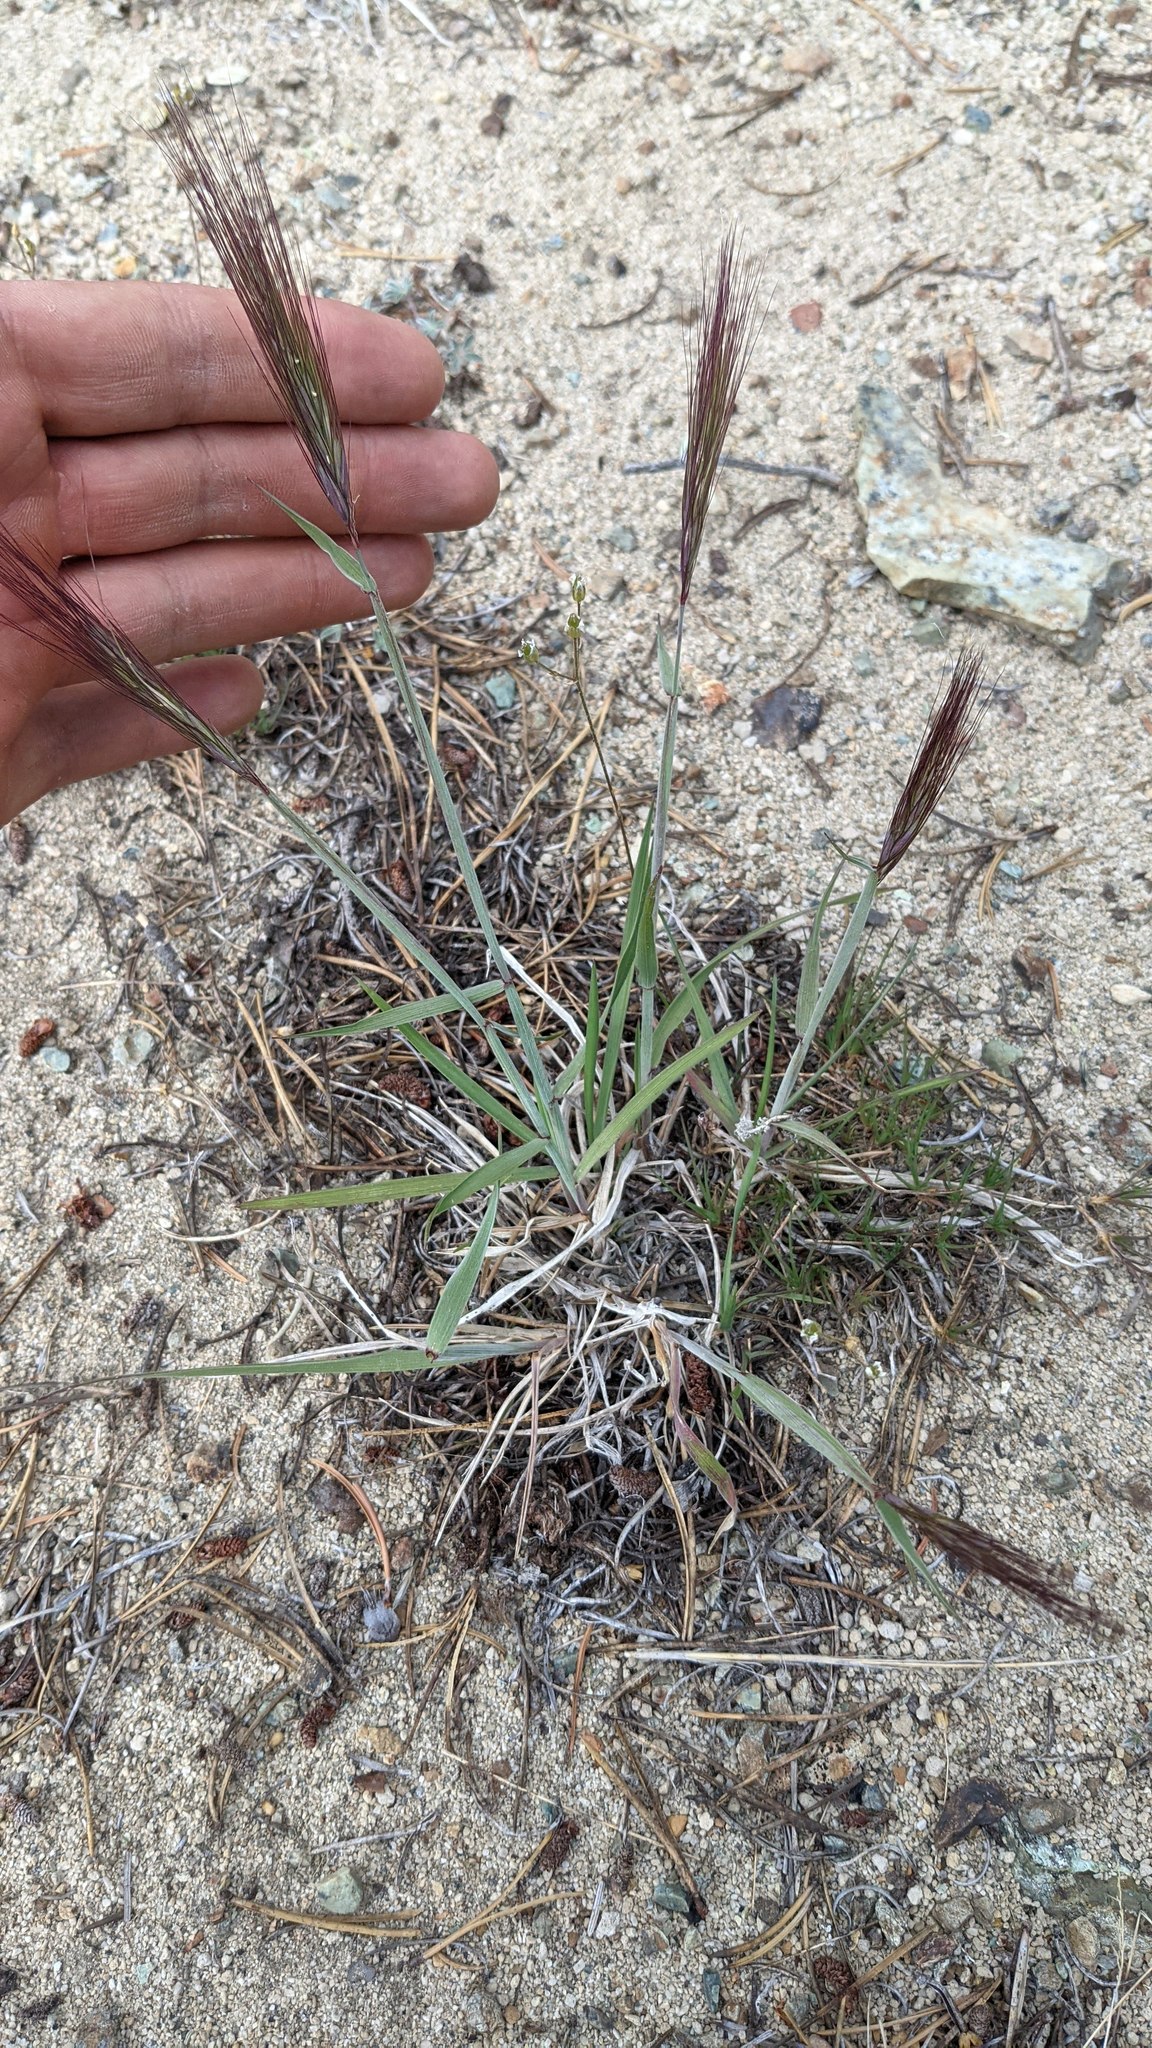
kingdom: Plantae
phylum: Tracheophyta
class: Liliopsida
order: Poales
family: Poaceae
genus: Elymus
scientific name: Elymus elymoides
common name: Bottlebrush squirreltail
